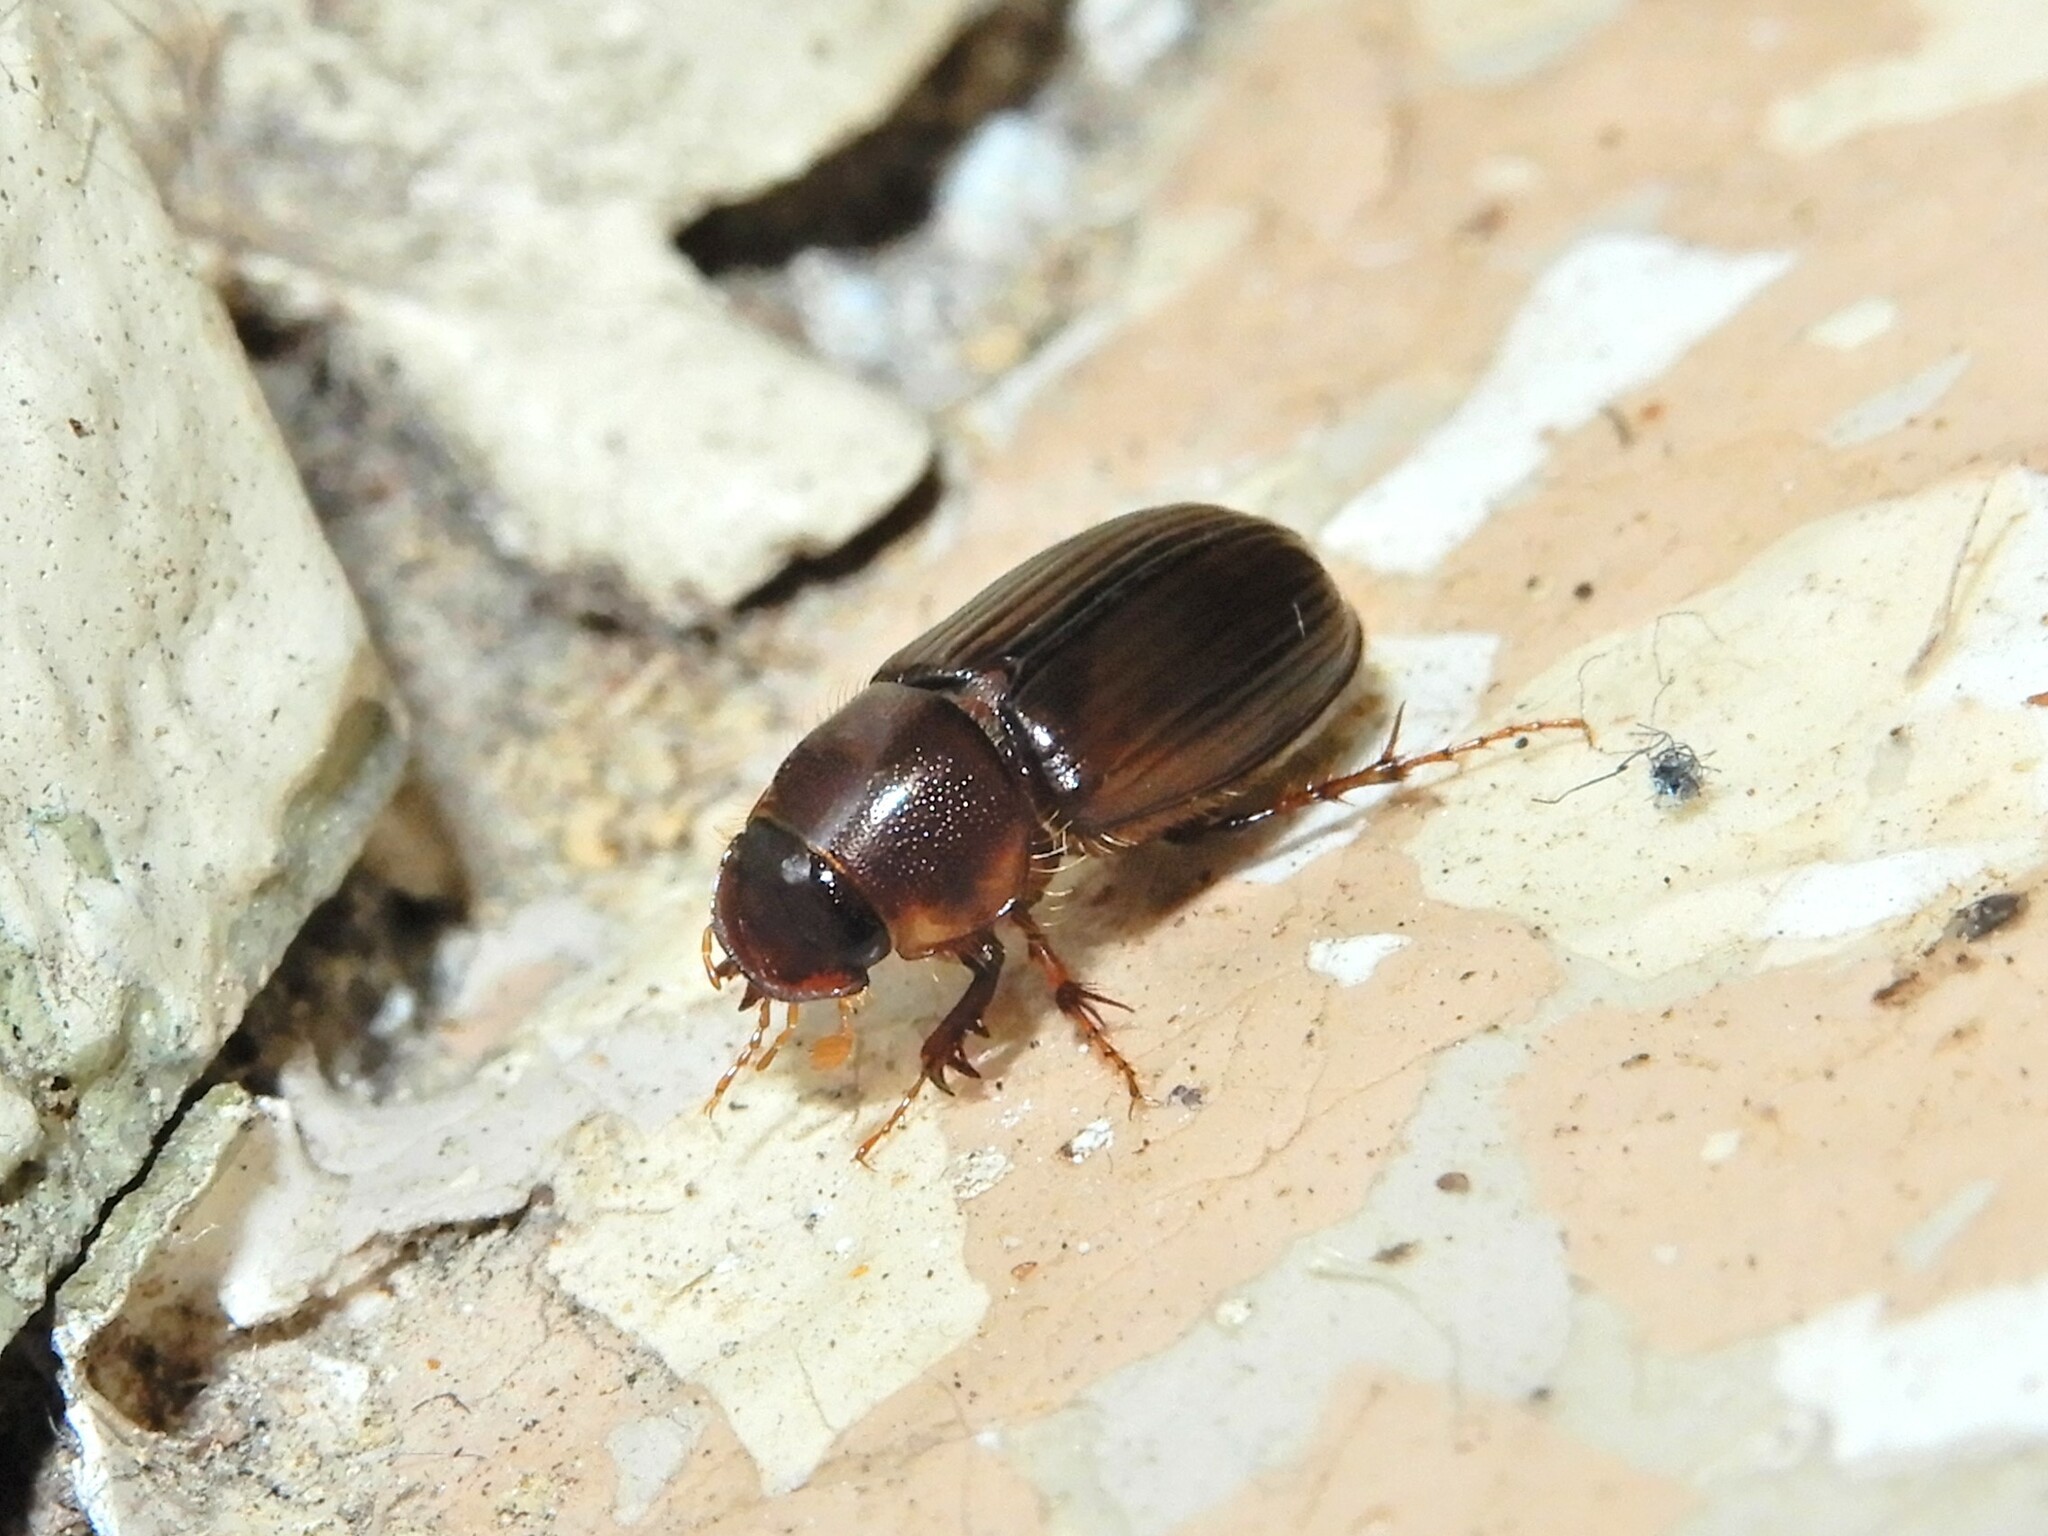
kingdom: Animalia
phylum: Arthropoda
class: Insecta
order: Coleoptera
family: Scarabaeidae
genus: Acrossidius
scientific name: Acrossidius tasmaniae
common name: Black-headed pasture cockchafer
